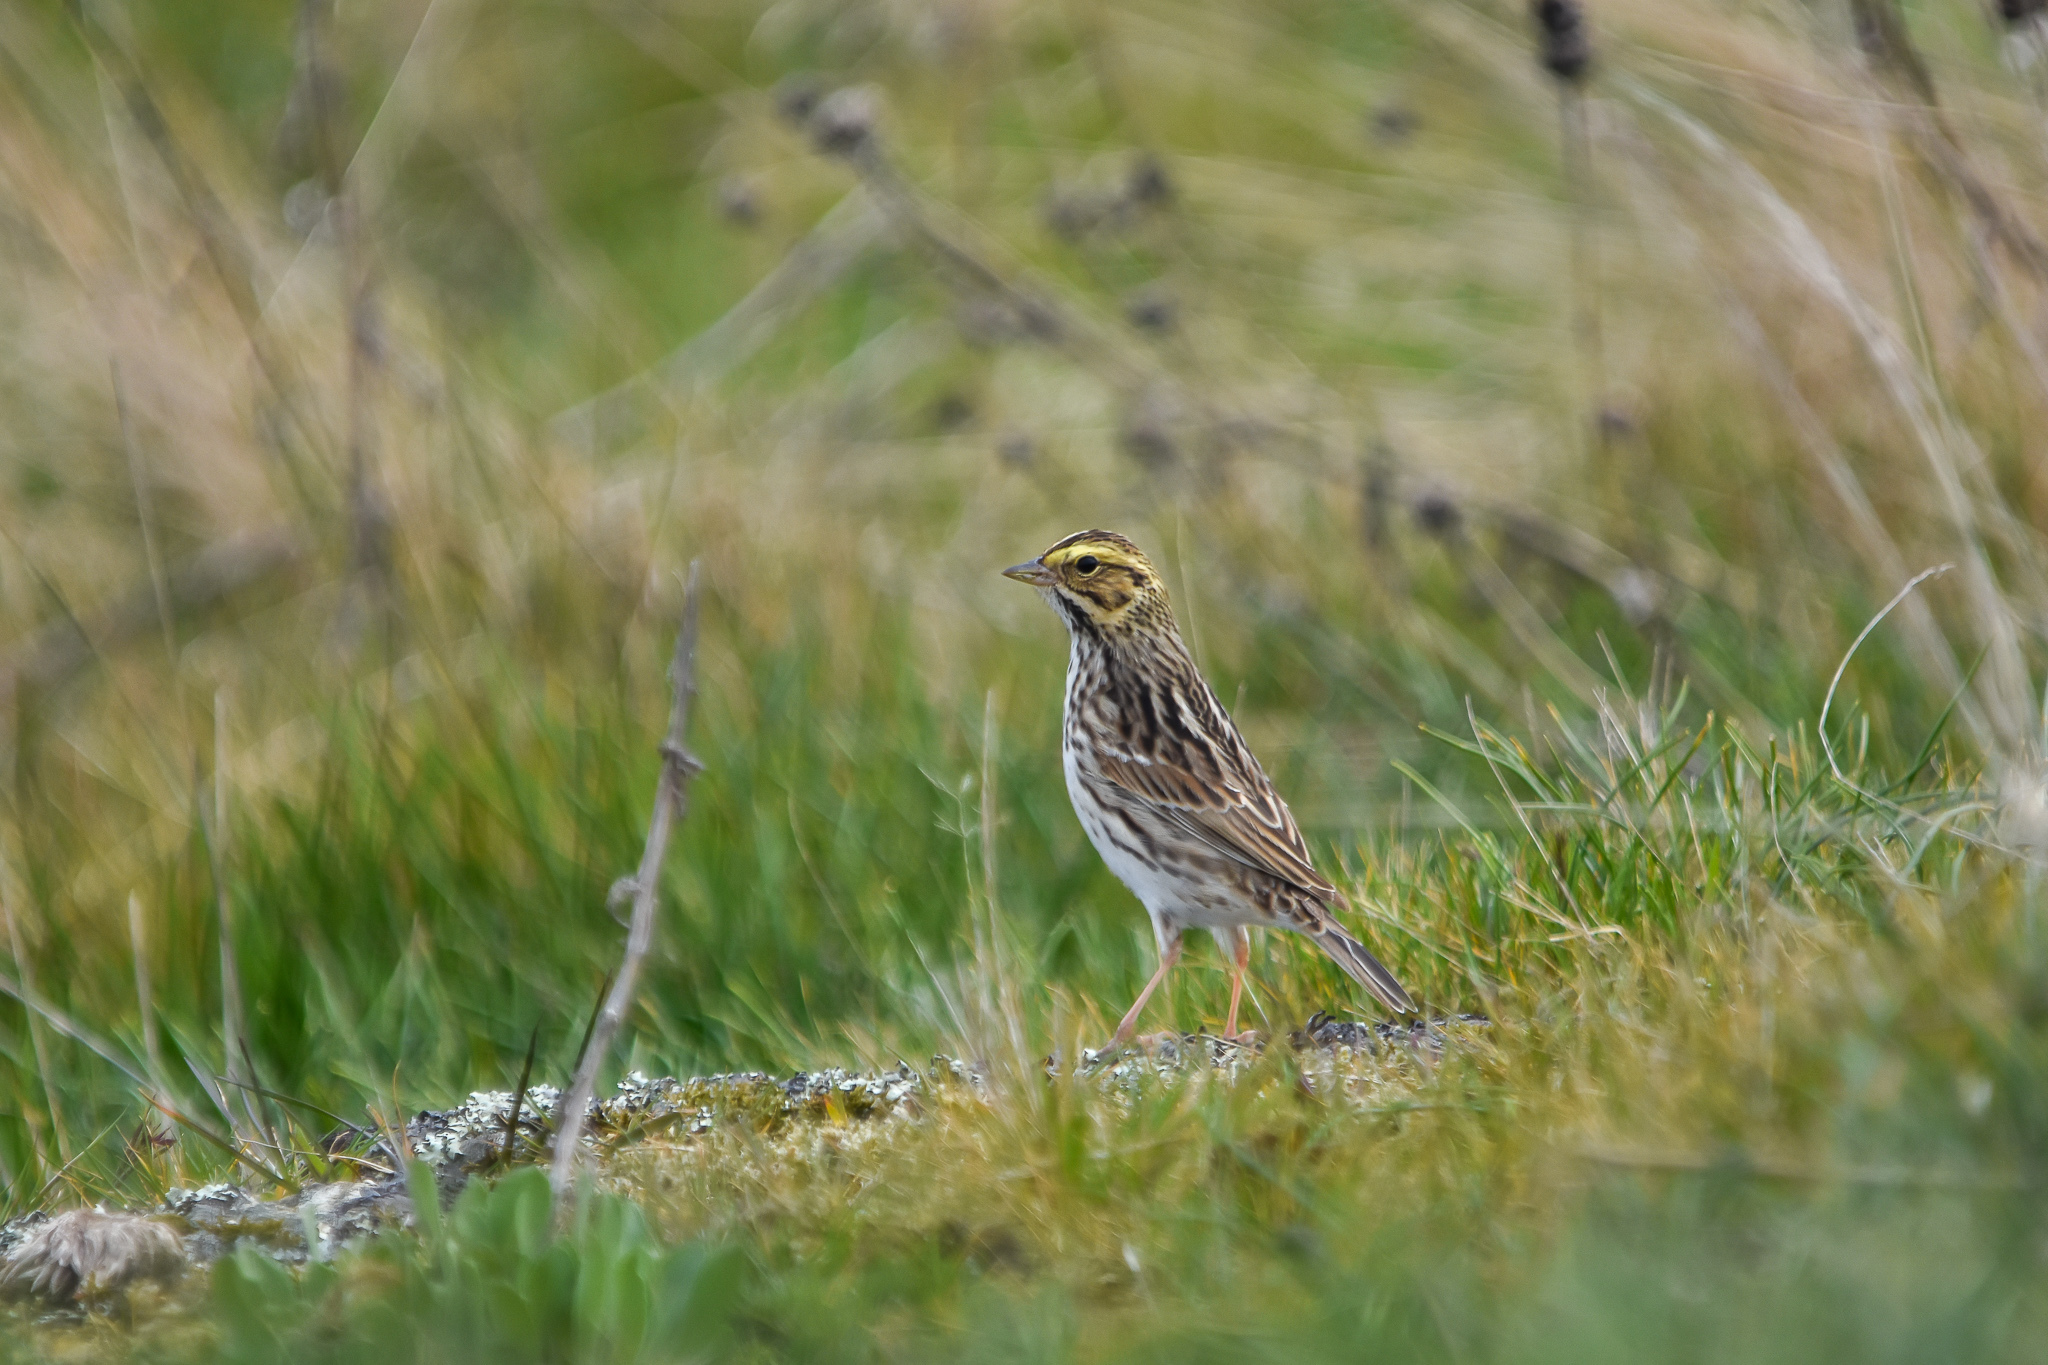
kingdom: Animalia
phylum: Chordata
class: Aves
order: Passeriformes
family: Passerellidae
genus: Passerculus
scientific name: Passerculus sandwichensis
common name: Savannah sparrow
